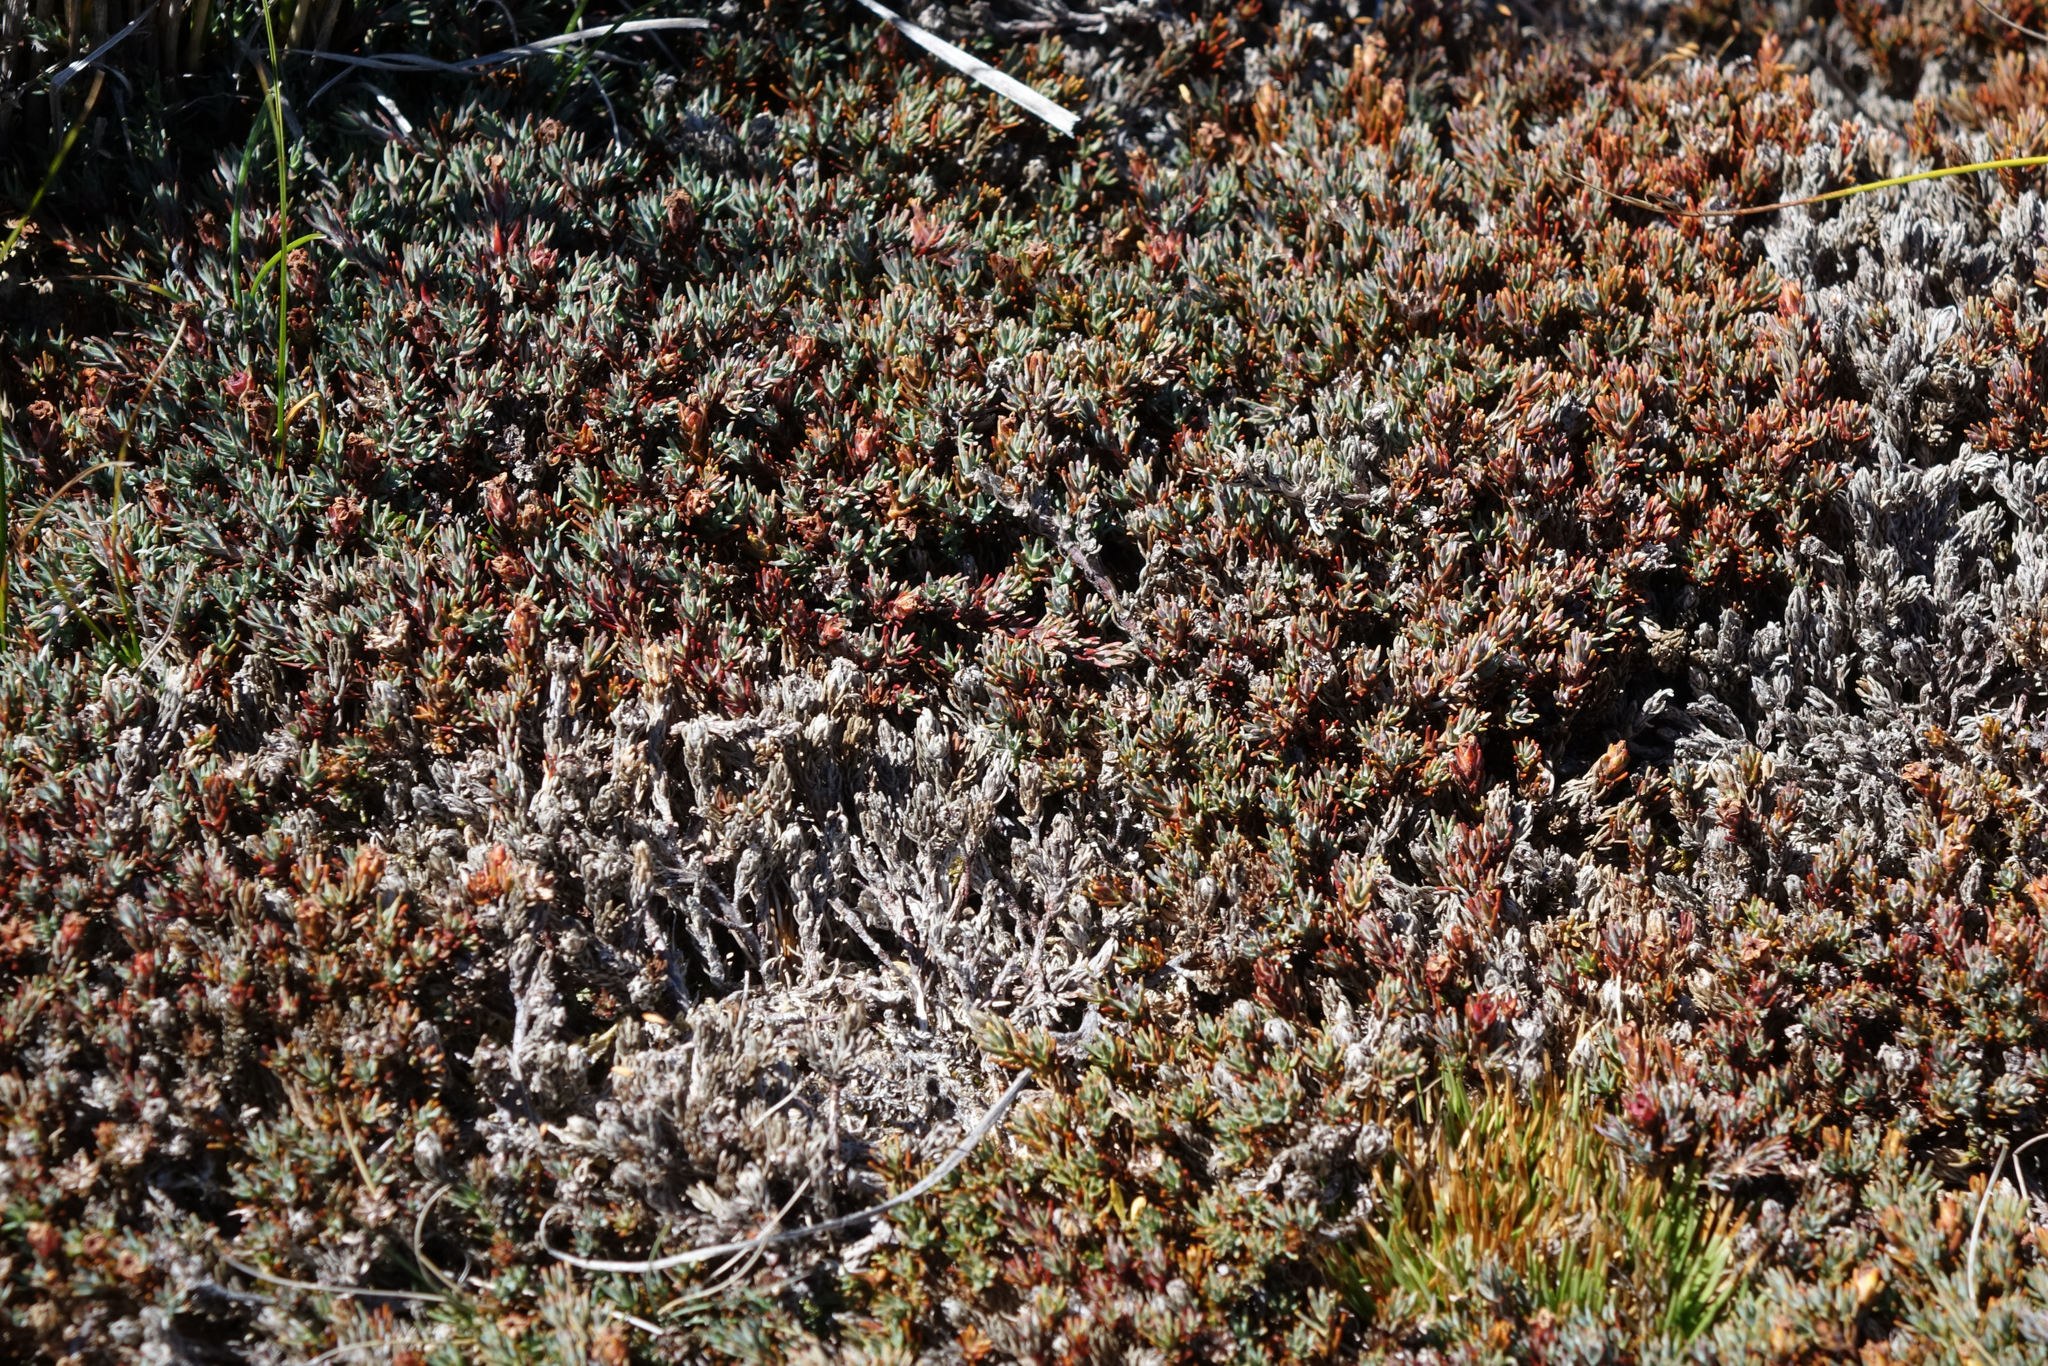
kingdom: Plantae
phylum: Tracheophyta
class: Magnoliopsida
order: Ericales
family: Ericaceae
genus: Dracophyllum
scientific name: Dracophyllum prostratum
